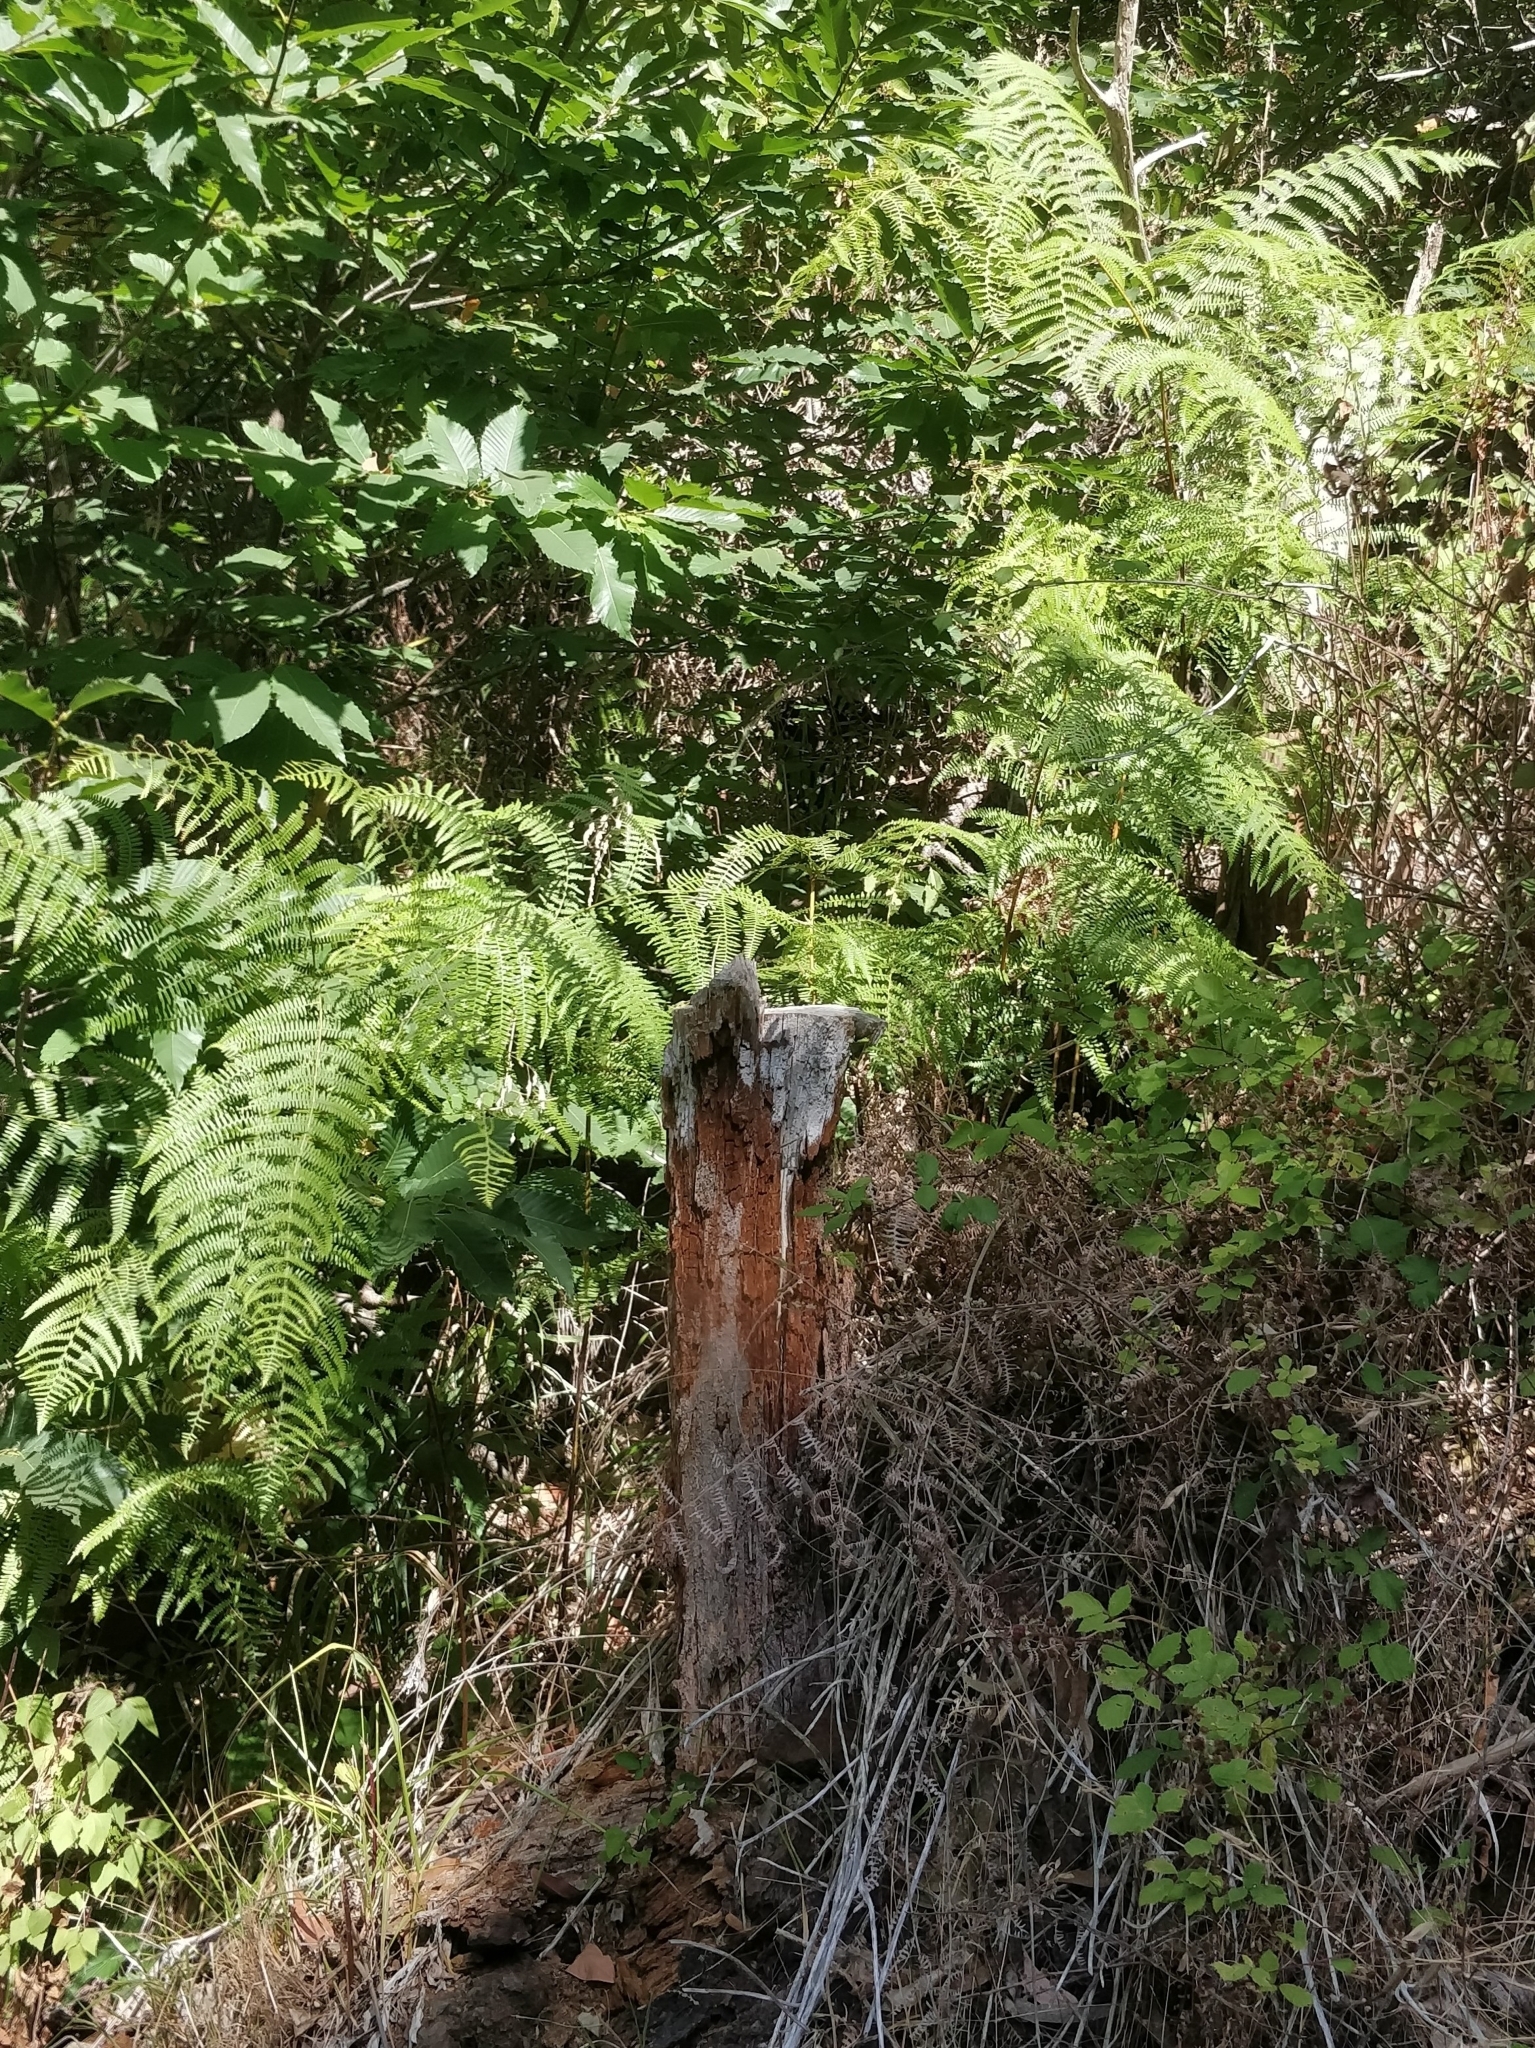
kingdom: Plantae
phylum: Tracheophyta
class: Polypodiopsida
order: Polypodiales
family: Dennstaedtiaceae
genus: Pteridium
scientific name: Pteridium aquilinum
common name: Bracken
